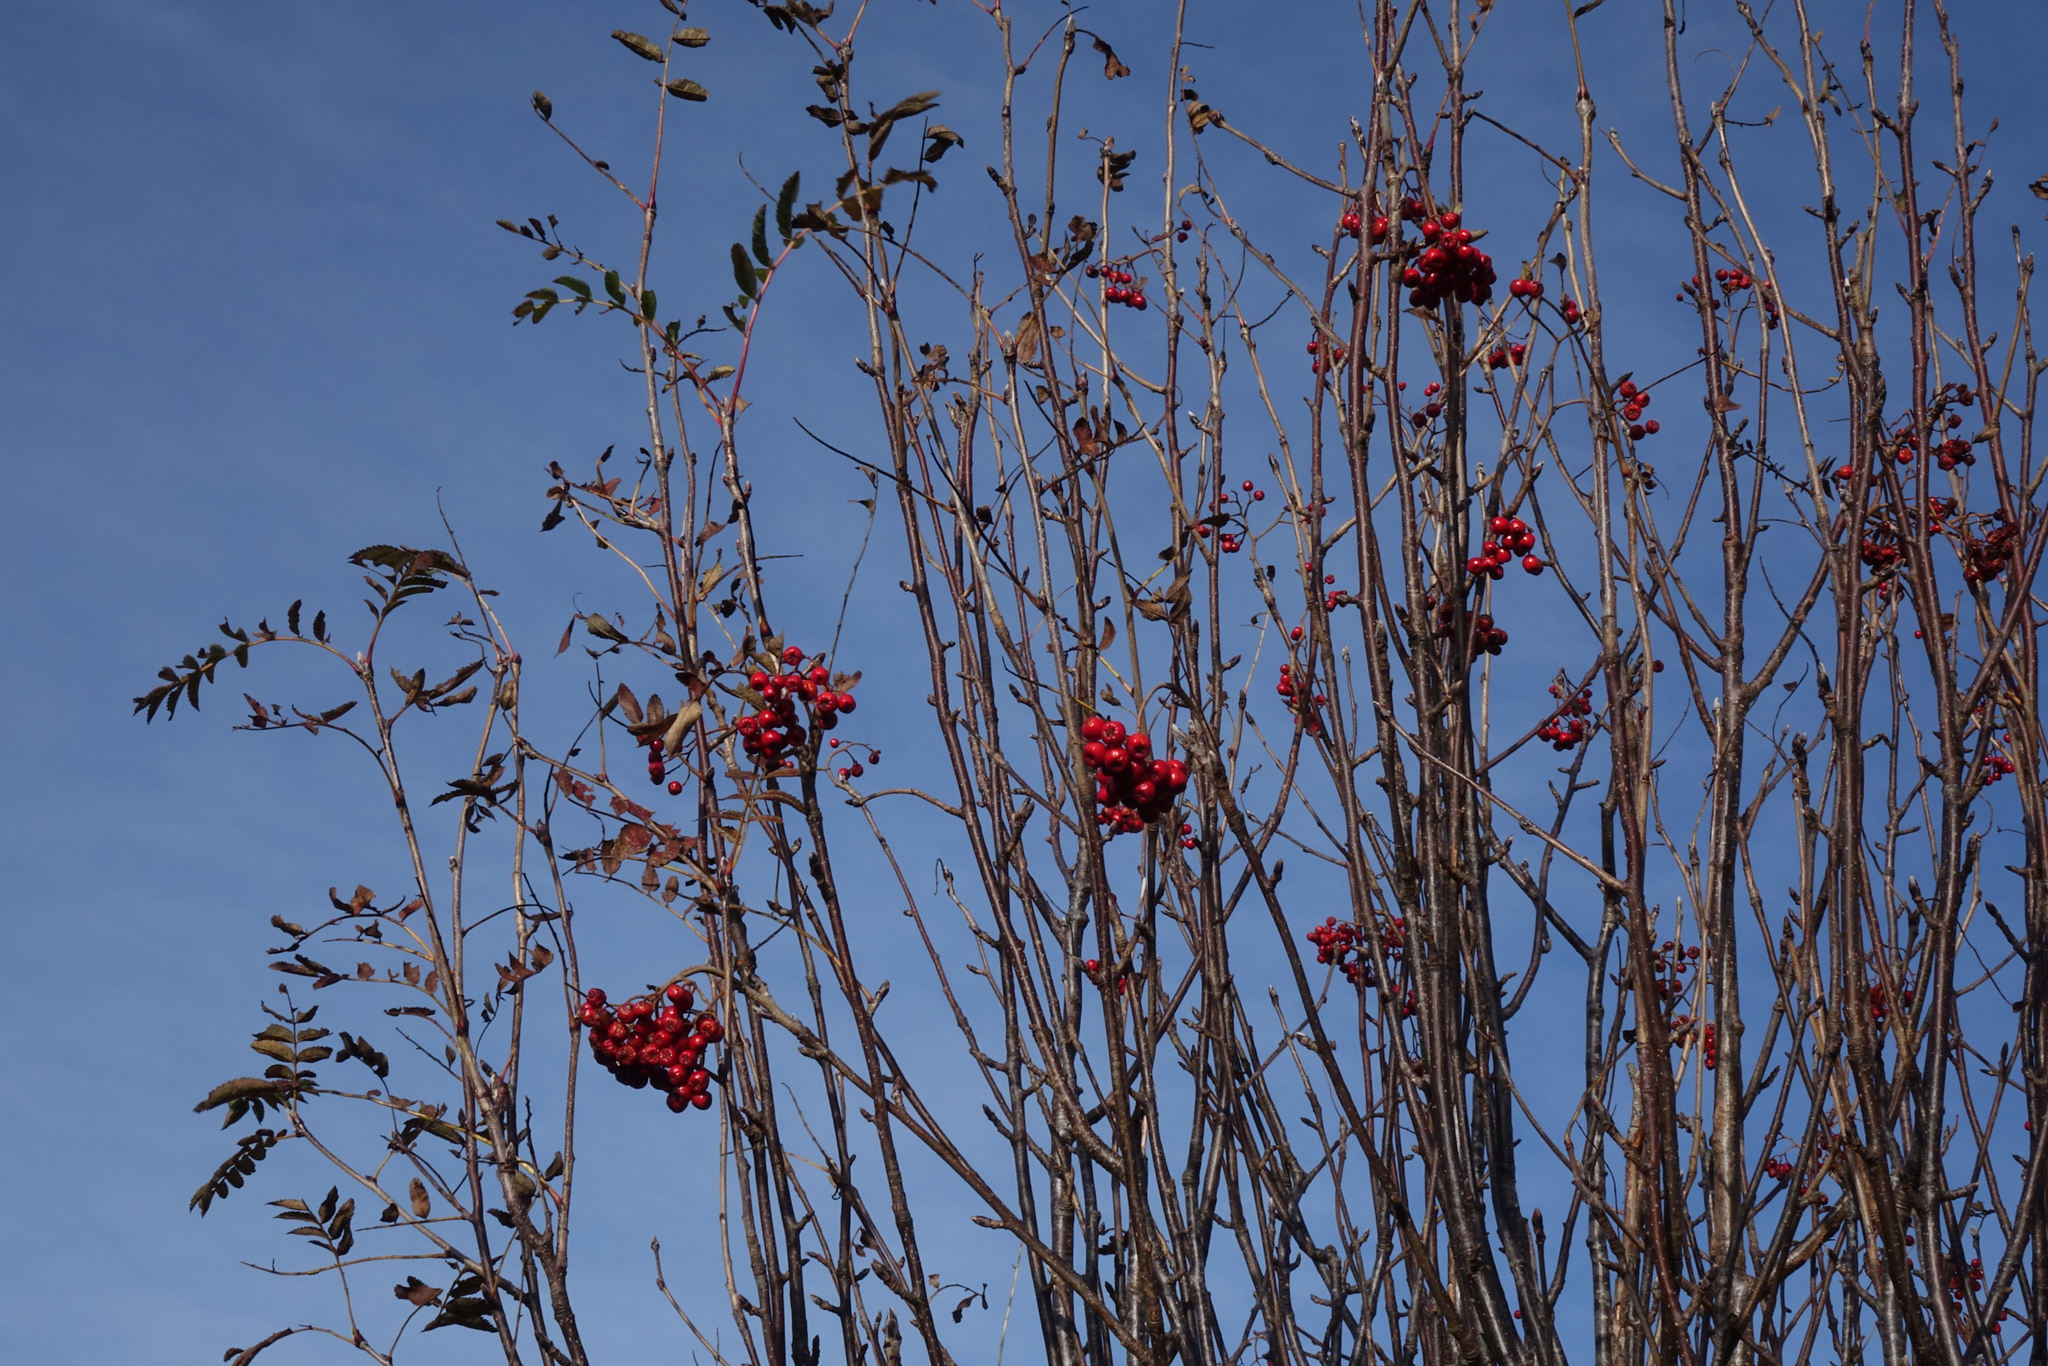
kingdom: Plantae
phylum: Tracheophyta
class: Magnoliopsida
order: Rosales
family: Rosaceae
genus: Sorbus
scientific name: Sorbus aucuparia
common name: Rowan
